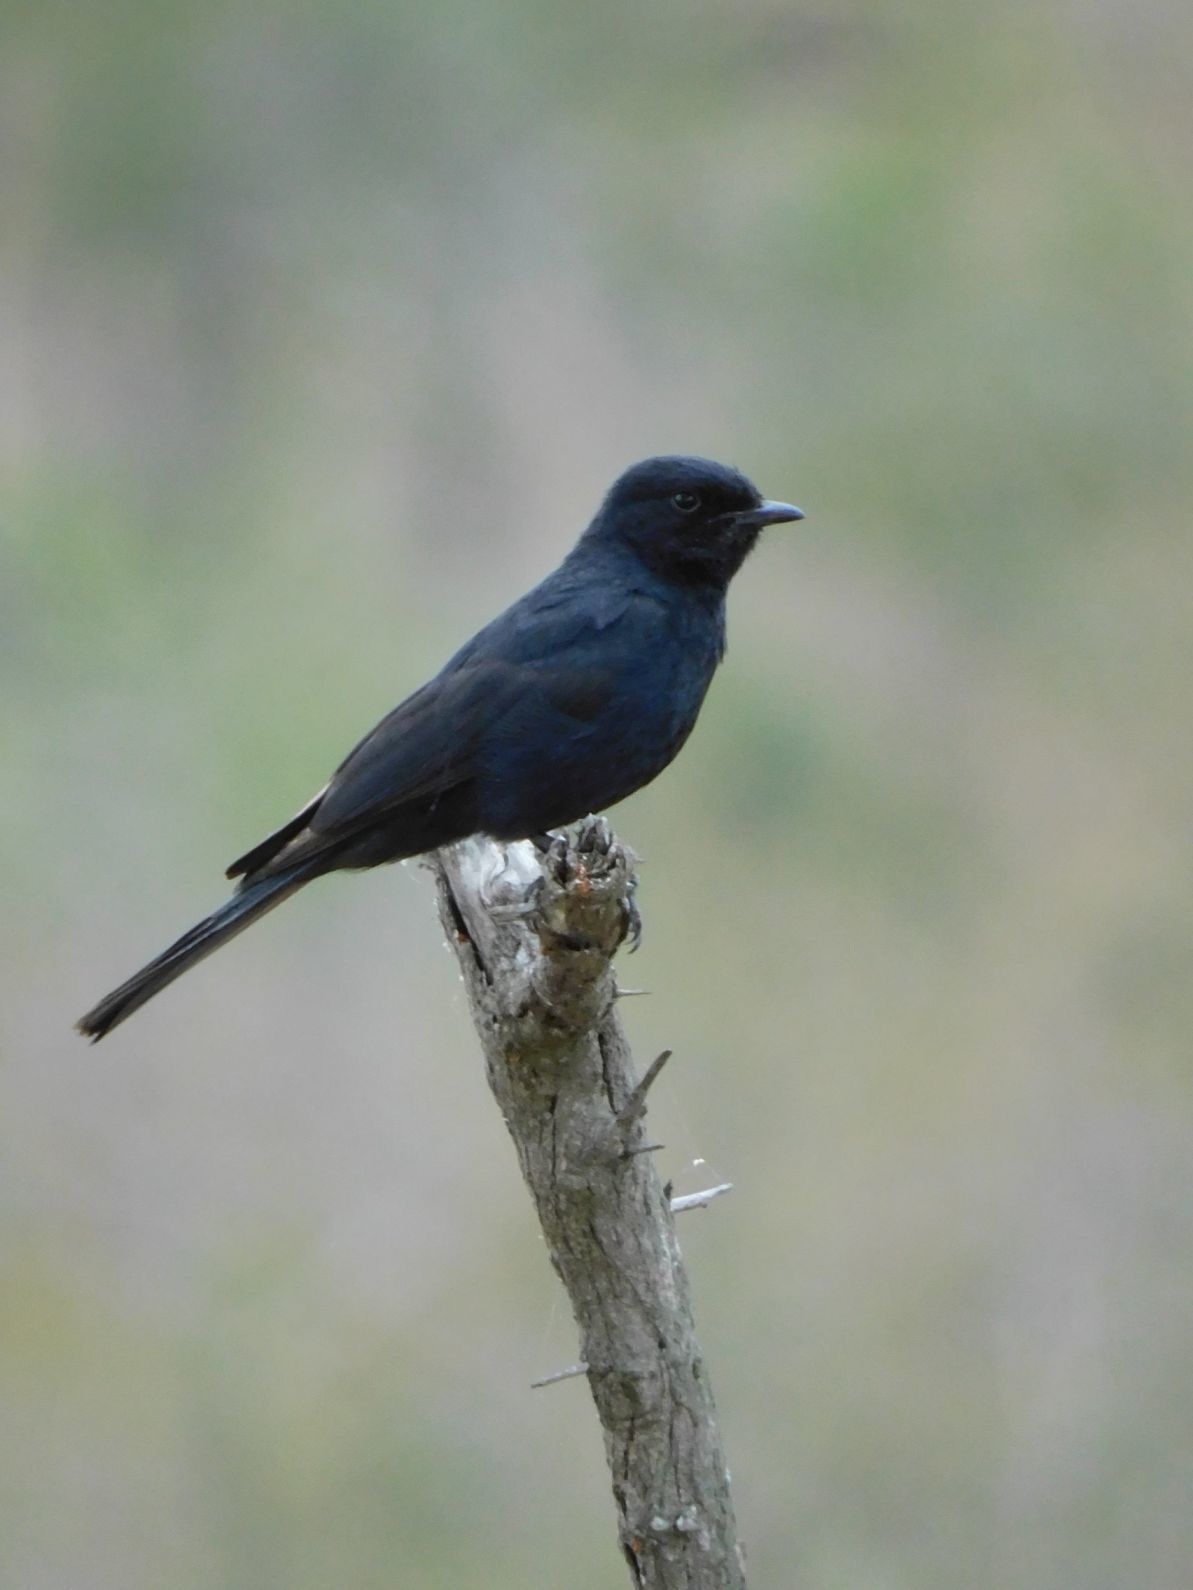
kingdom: Animalia
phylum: Chordata
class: Aves
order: Passeriformes
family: Muscicapidae
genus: Melaenornis
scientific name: Melaenornis pammelaina
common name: Southern black flycatcher
